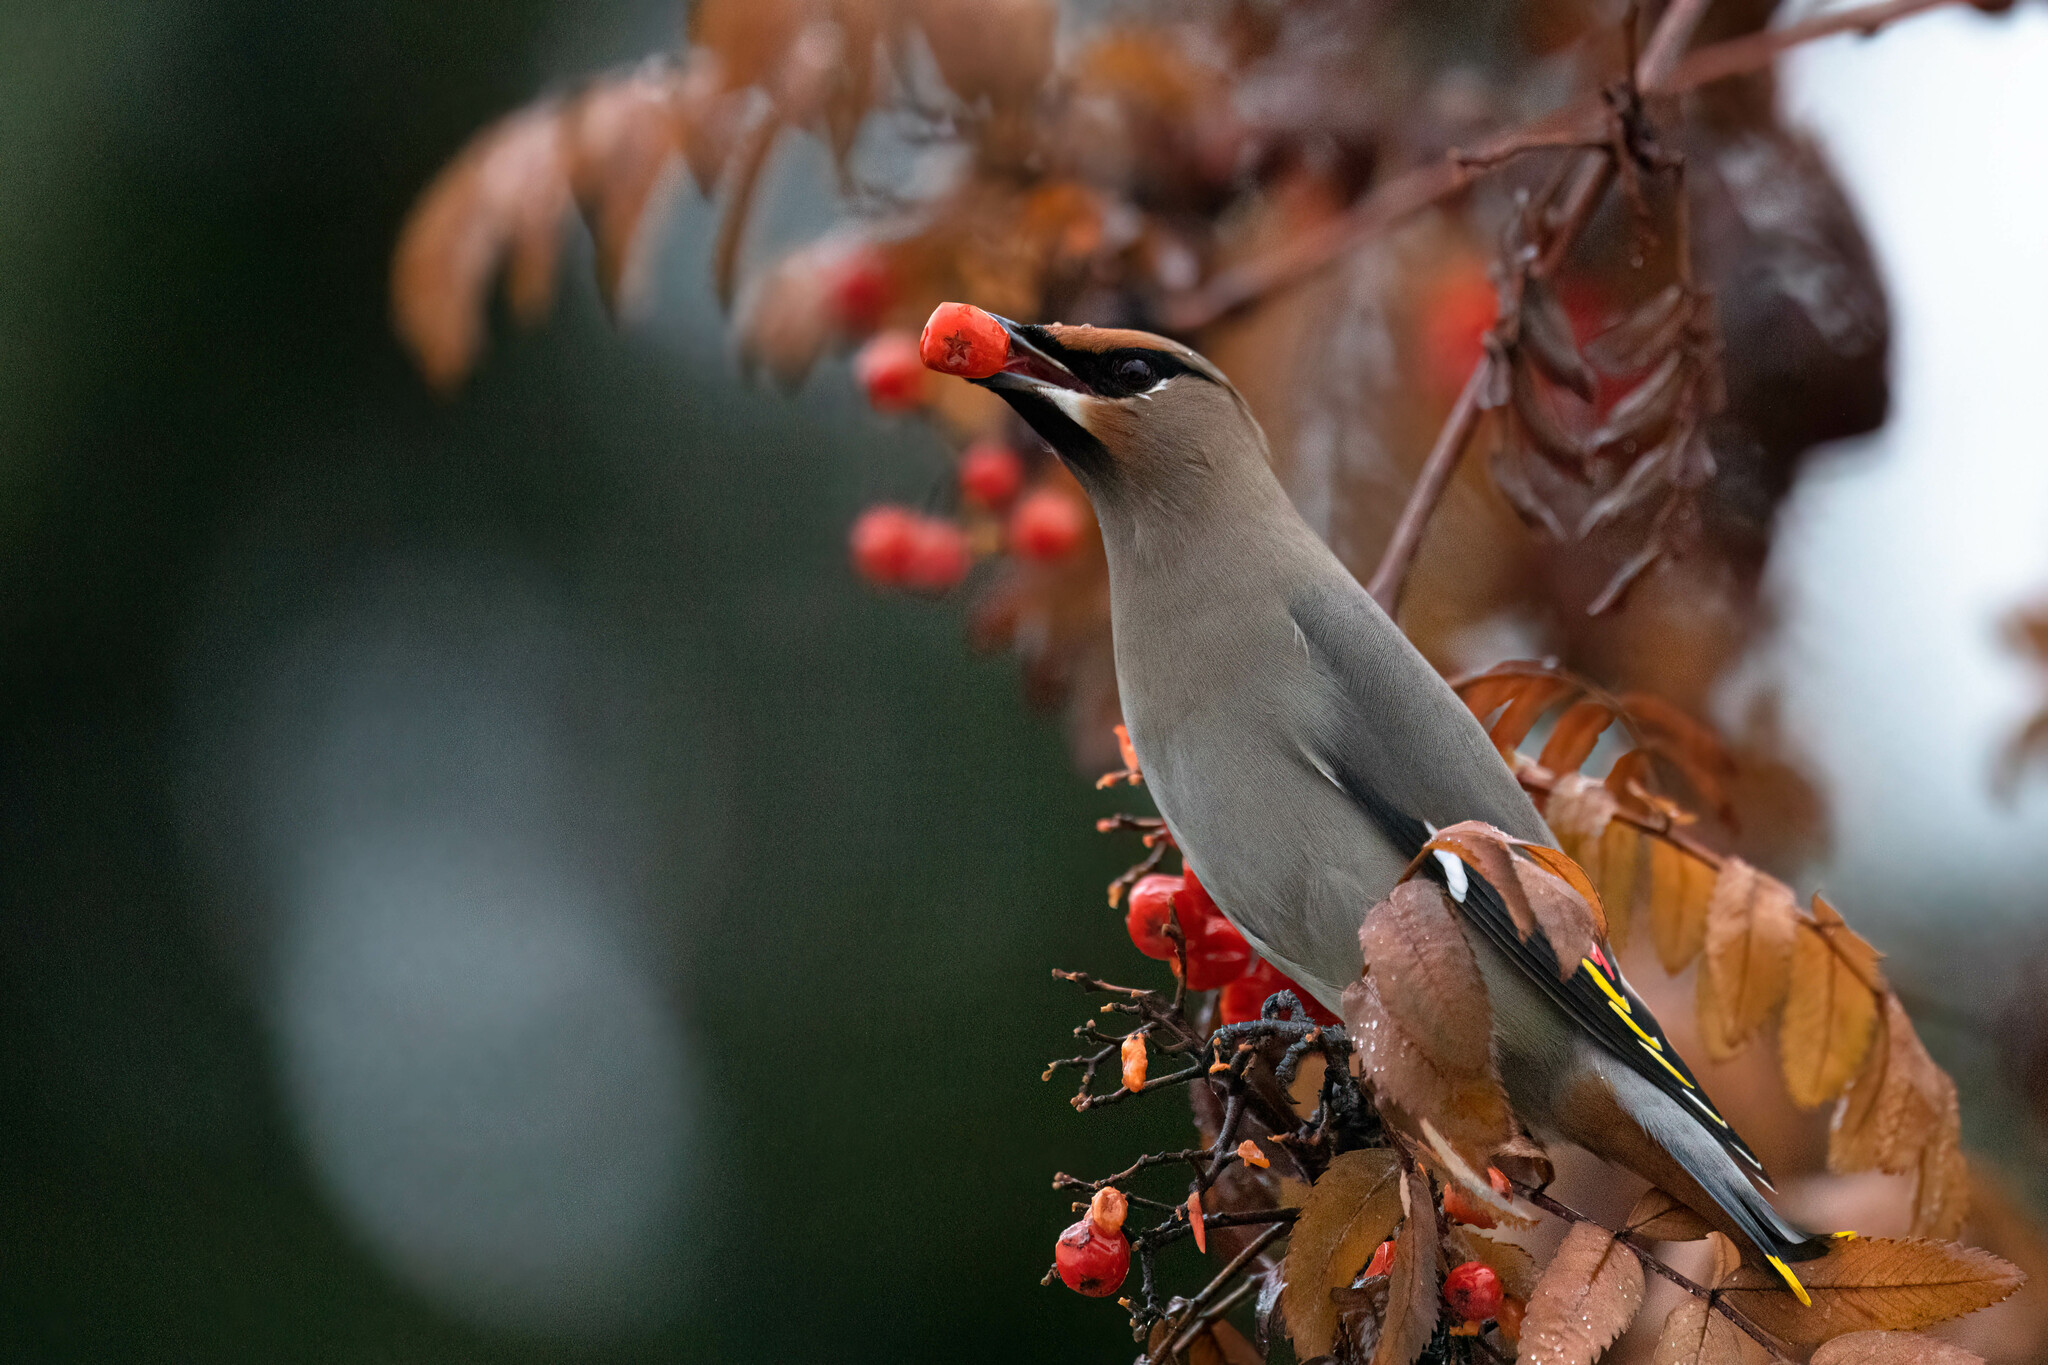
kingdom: Animalia
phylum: Chordata
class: Aves
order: Passeriformes
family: Bombycillidae
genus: Bombycilla
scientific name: Bombycilla garrulus
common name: Bohemian waxwing
